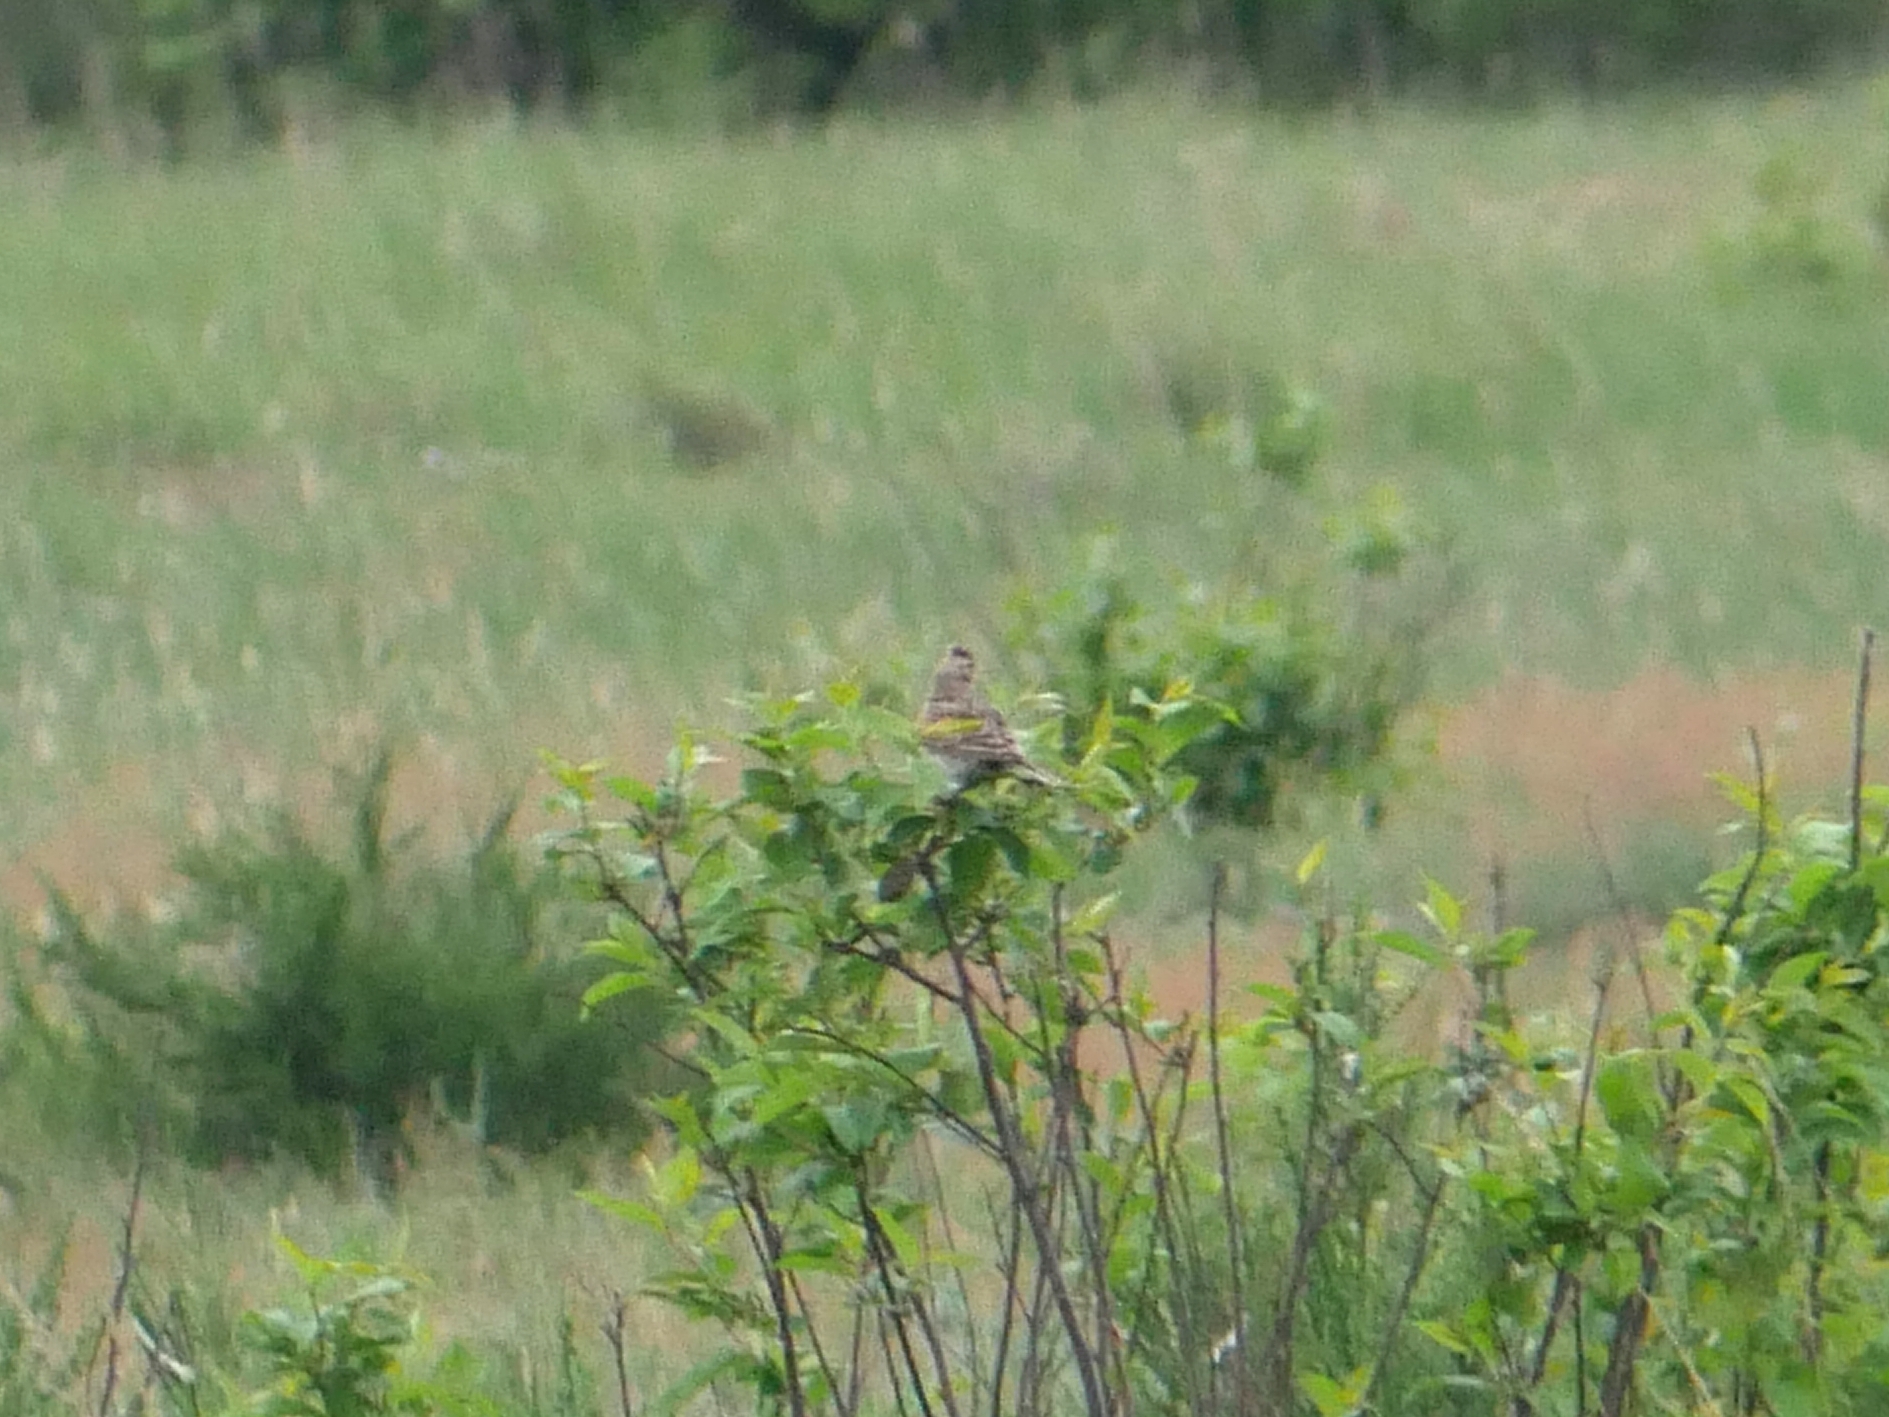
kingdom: Animalia
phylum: Chordata
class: Aves
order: Passeriformes
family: Alaudidae
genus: Alauda
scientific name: Alauda arvensis
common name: Eurasian skylark
